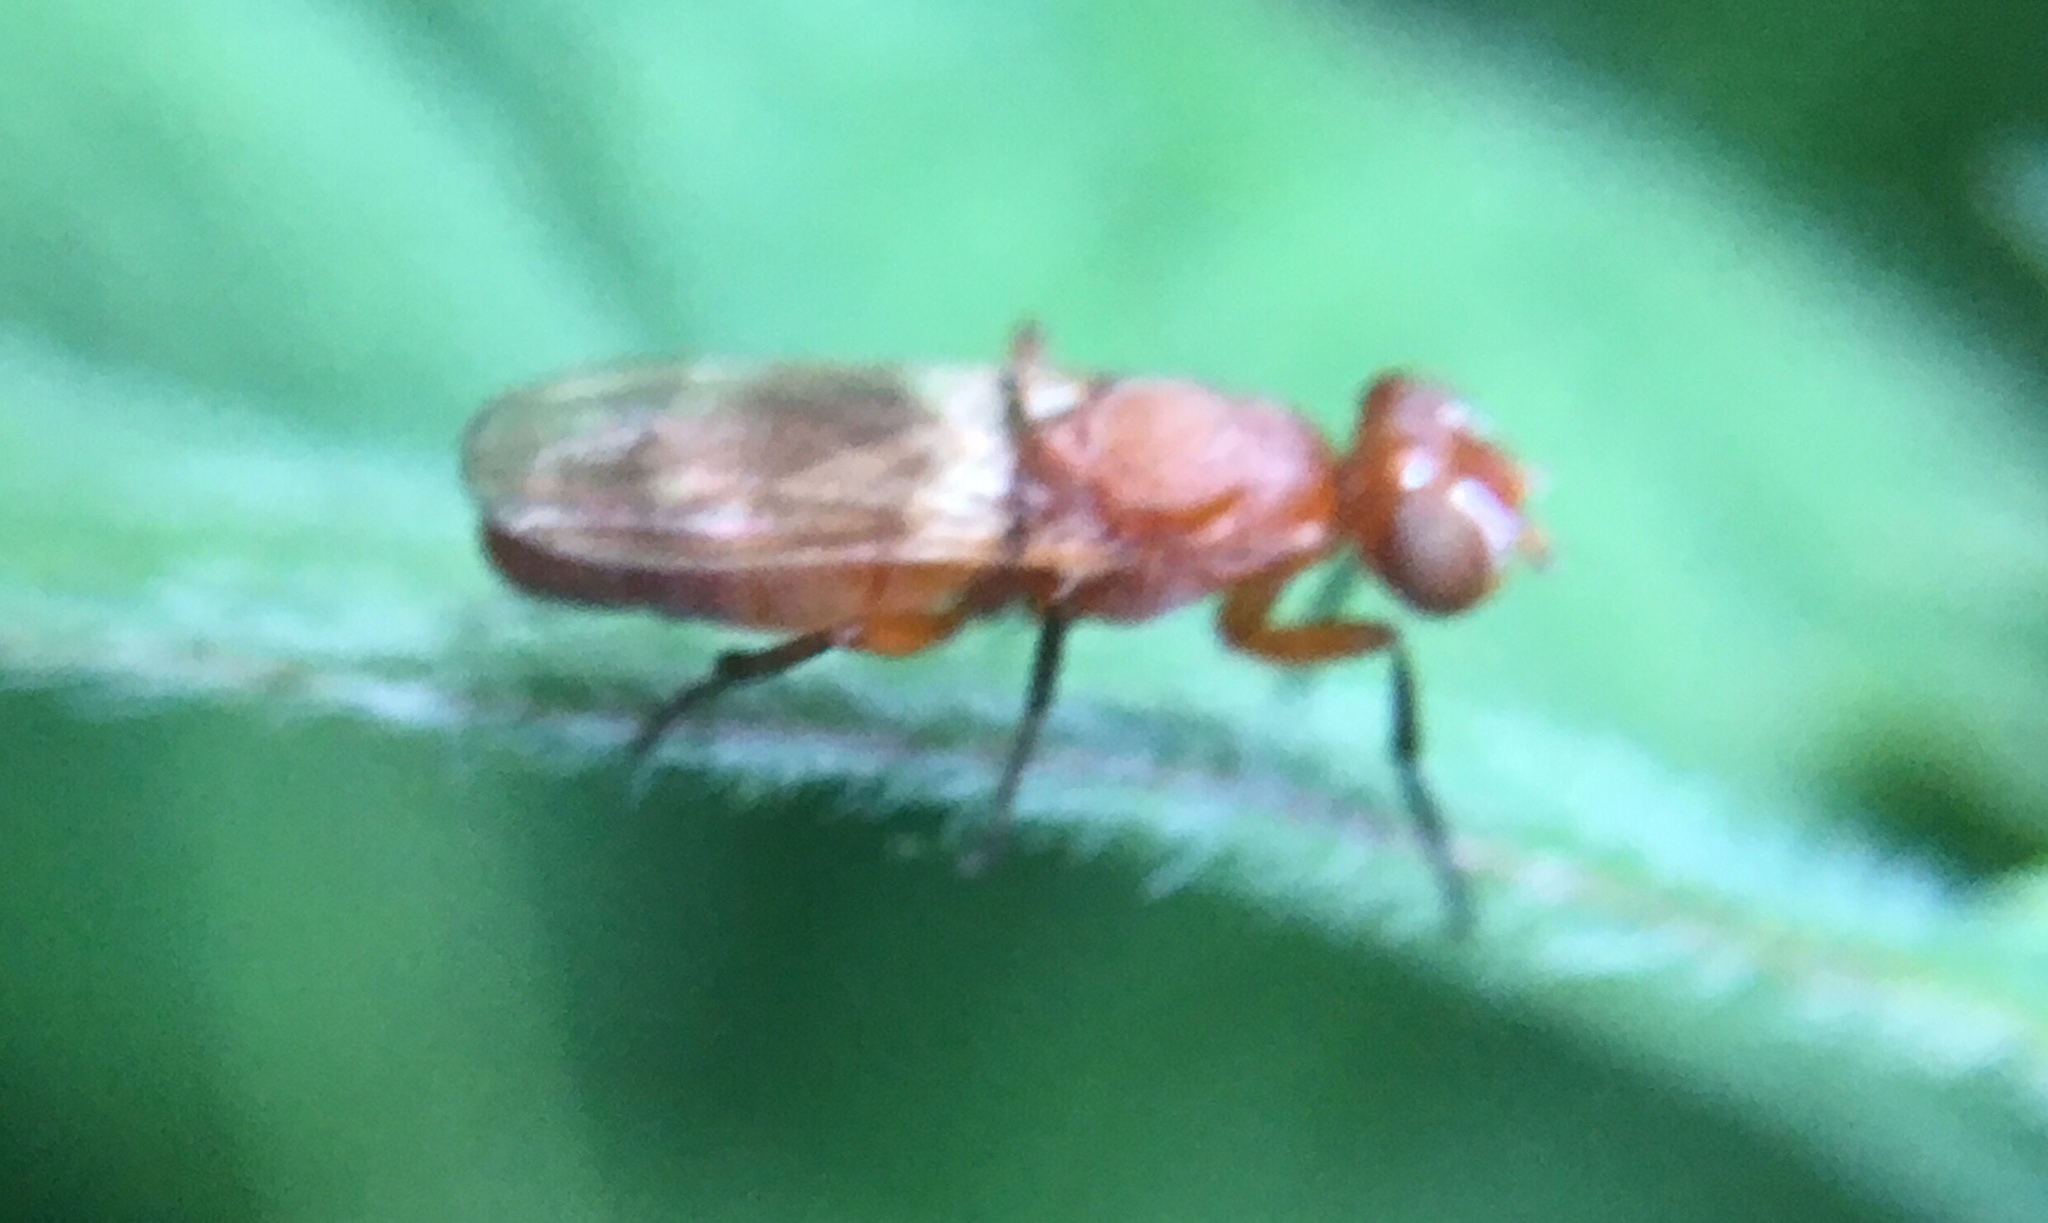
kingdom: Animalia
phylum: Arthropoda
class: Insecta
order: Diptera
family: Ulidiidae
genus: Zacompsia
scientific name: Zacompsia fulva
